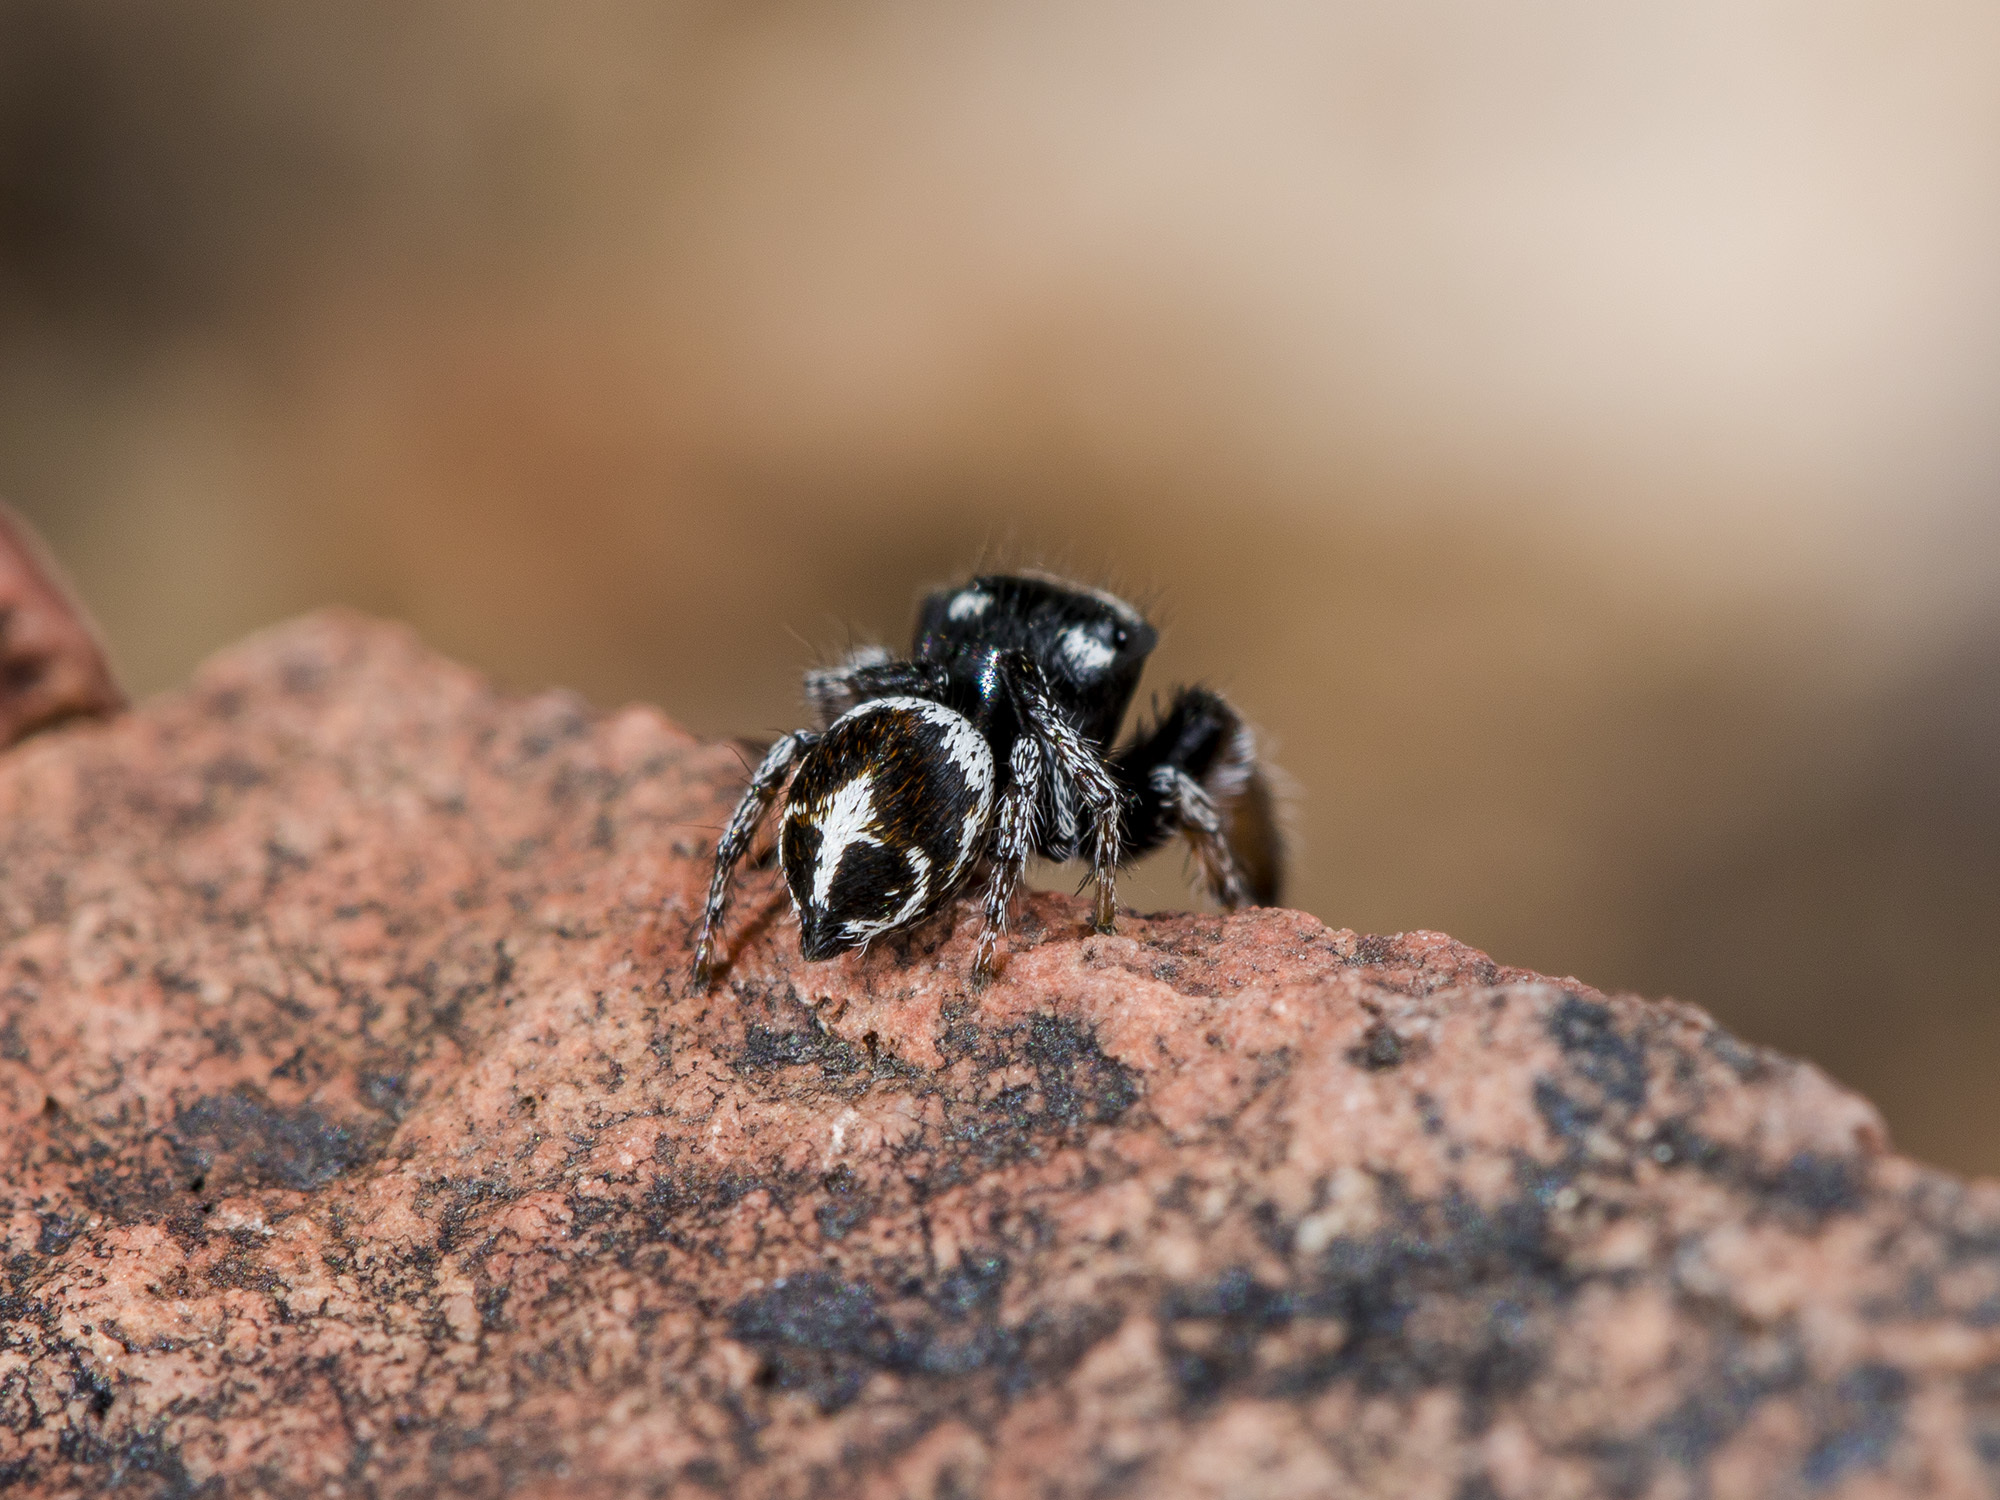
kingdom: Animalia
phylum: Arthropoda
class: Arachnida
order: Araneae
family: Salticidae
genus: Pellenes
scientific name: Pellenes geniculatus
